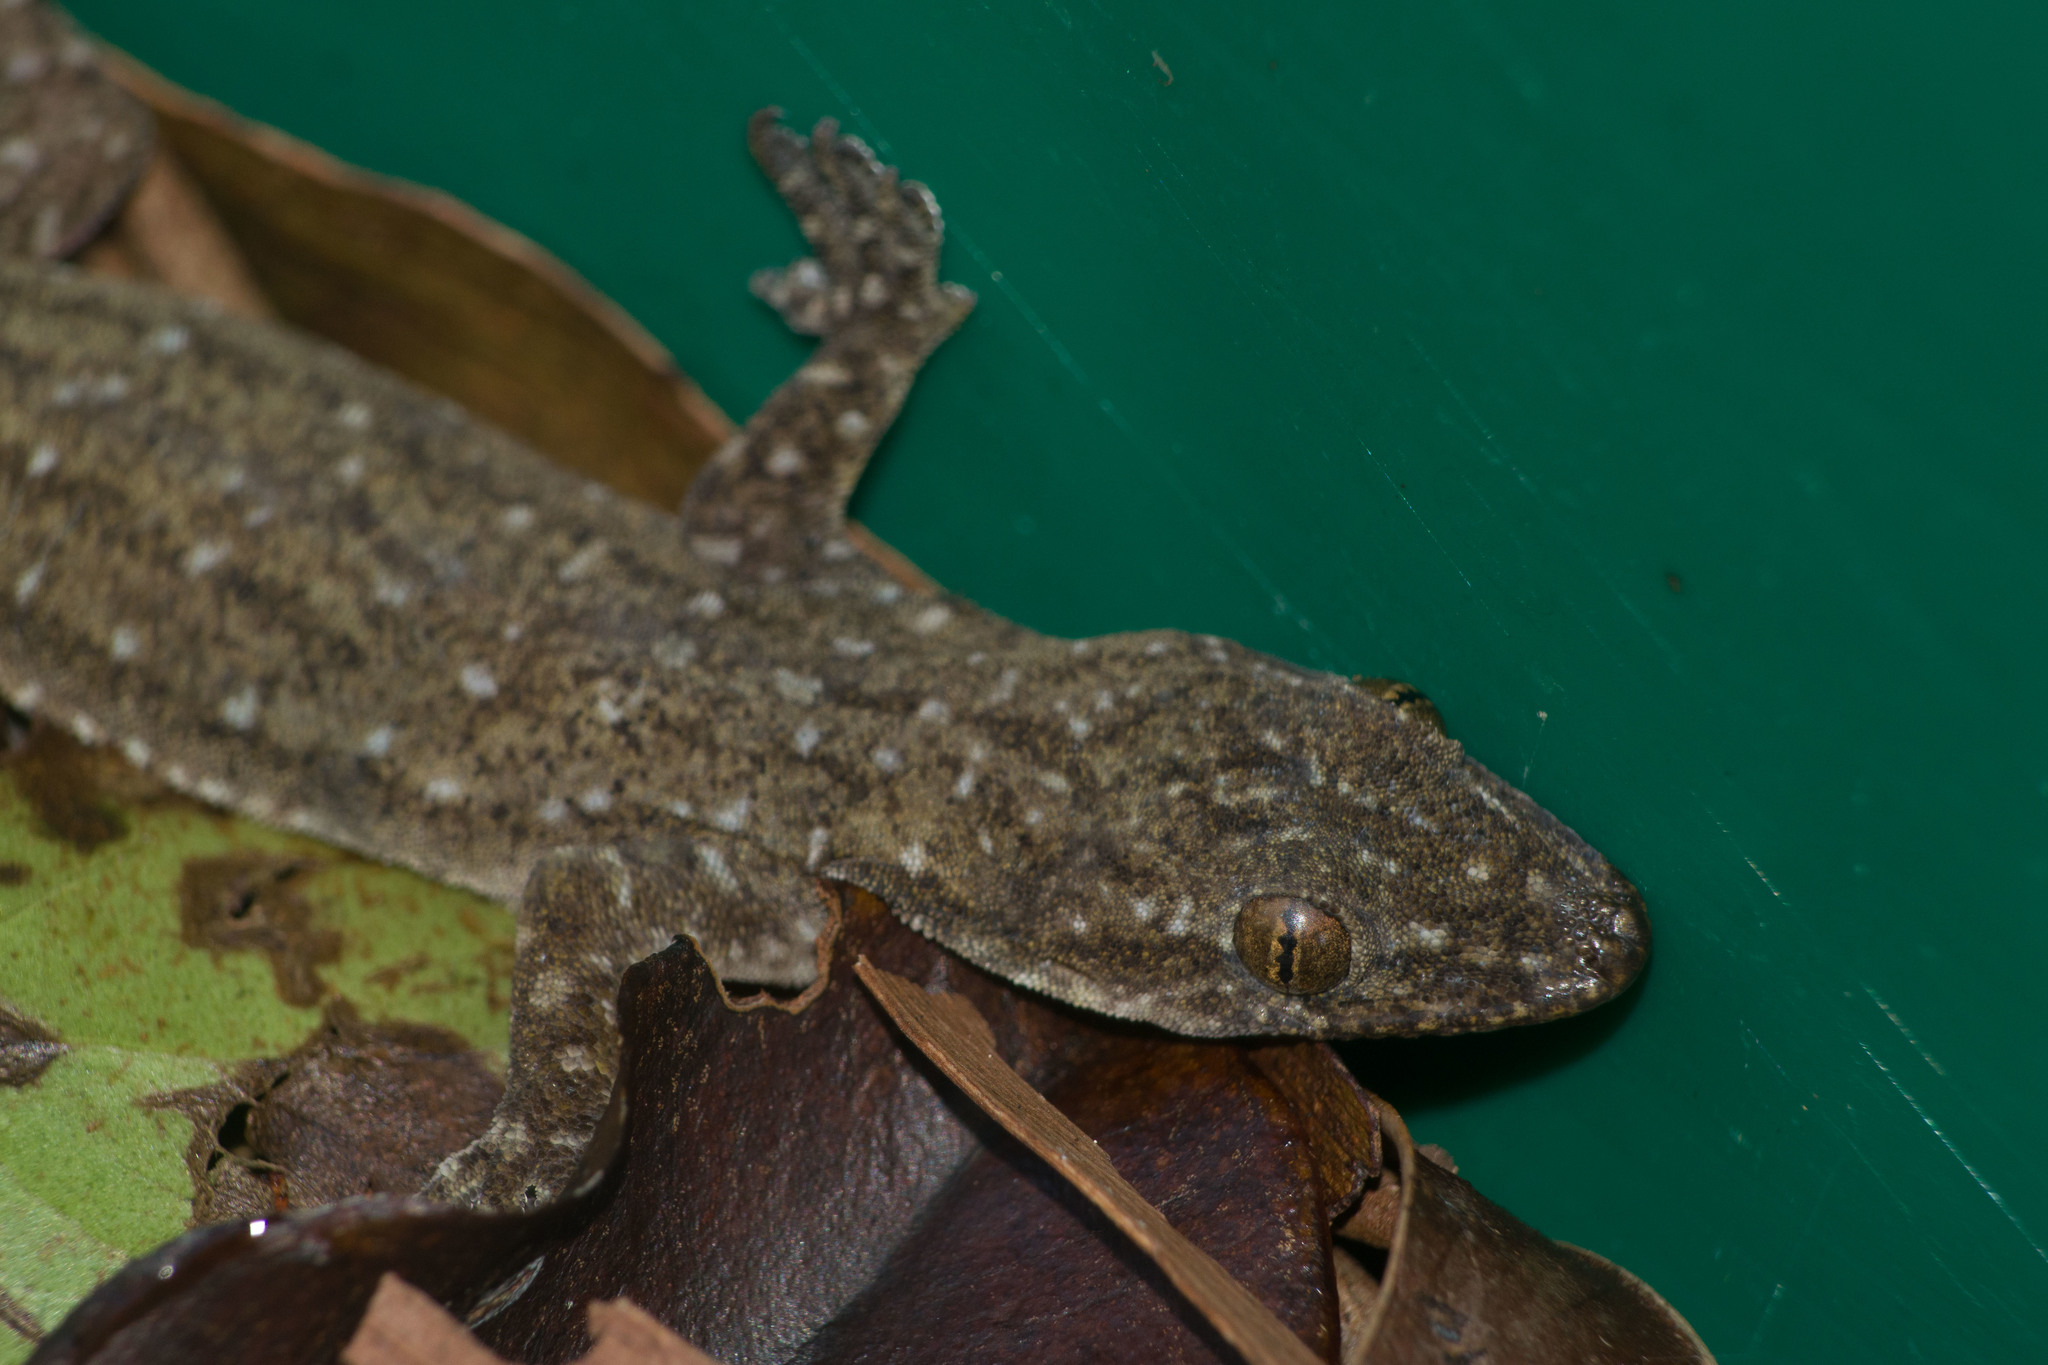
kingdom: Animalia
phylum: Chordata
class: Squamata
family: Gekkonidae
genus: Hemidactylus
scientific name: Hemidactylus garnotii
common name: Indo-pacific gecko
